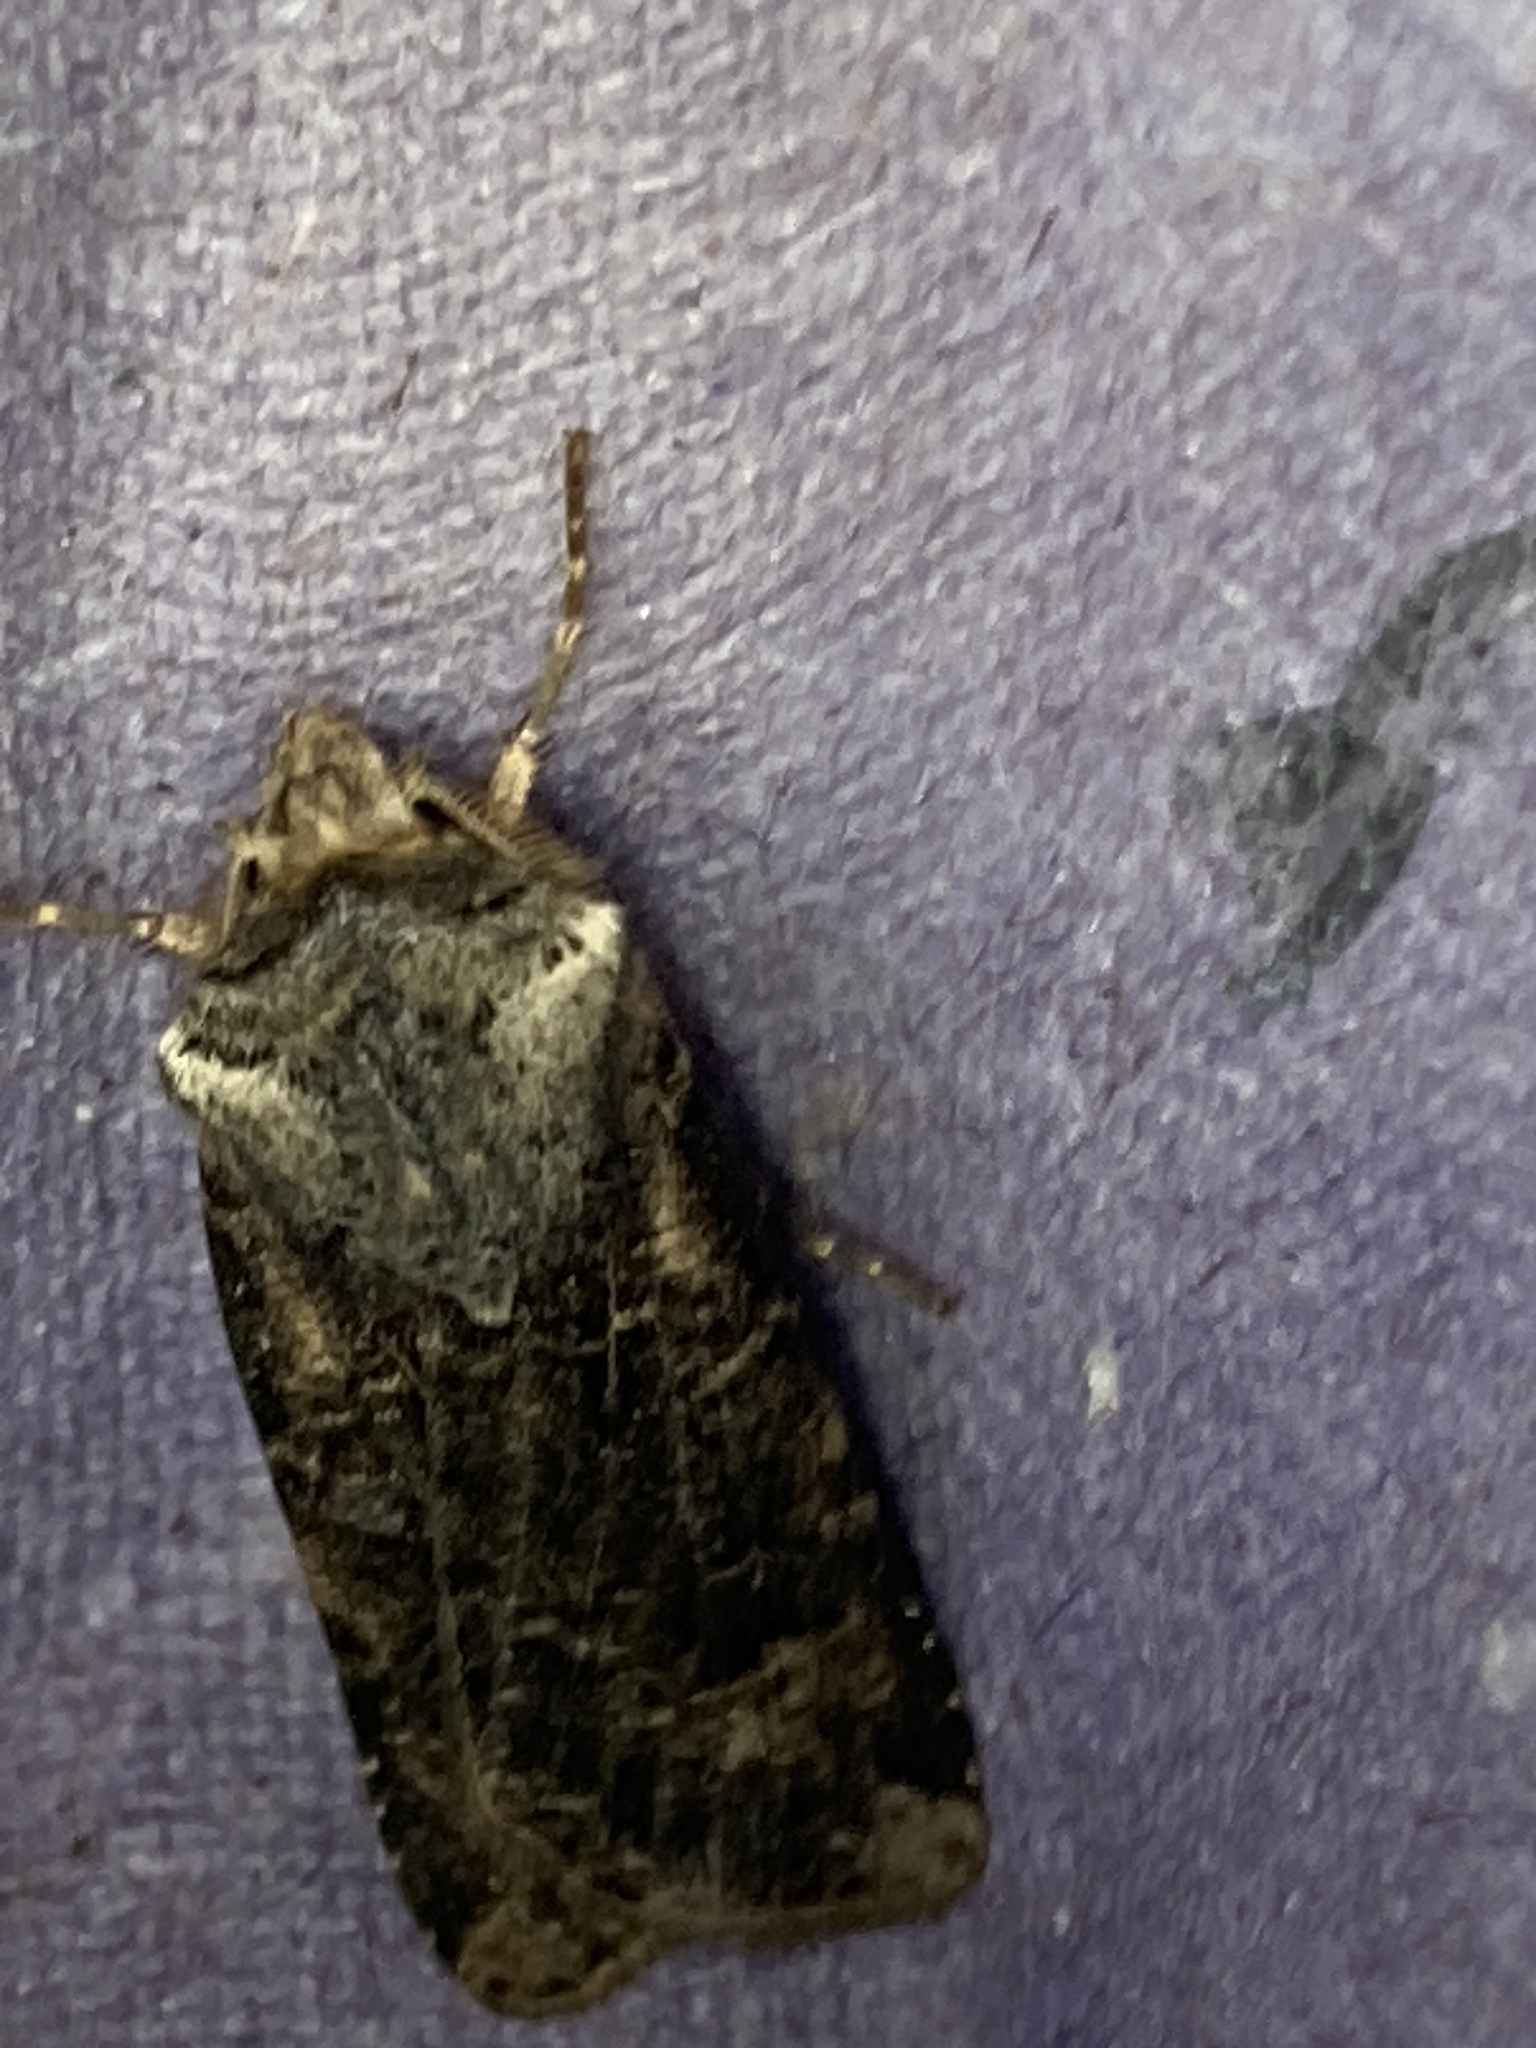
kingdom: Animalia
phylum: Arthropoda
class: Insecta
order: Lepidoptera
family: Noctuidae
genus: Agrotis
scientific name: Agrotis clavis
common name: Heart and club
